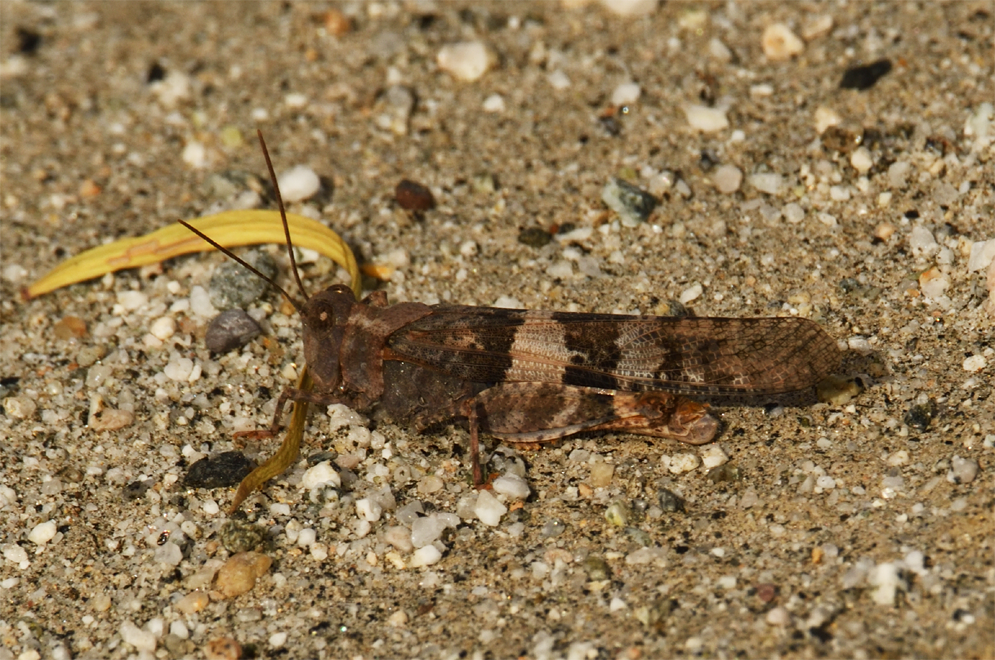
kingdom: Animalia
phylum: Arthropoda
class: Insecta
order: Orthoptera
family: Acrididae
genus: Trimerotropis
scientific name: Trimerotropis pallidipennis
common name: Pallid-winged grasshopper
